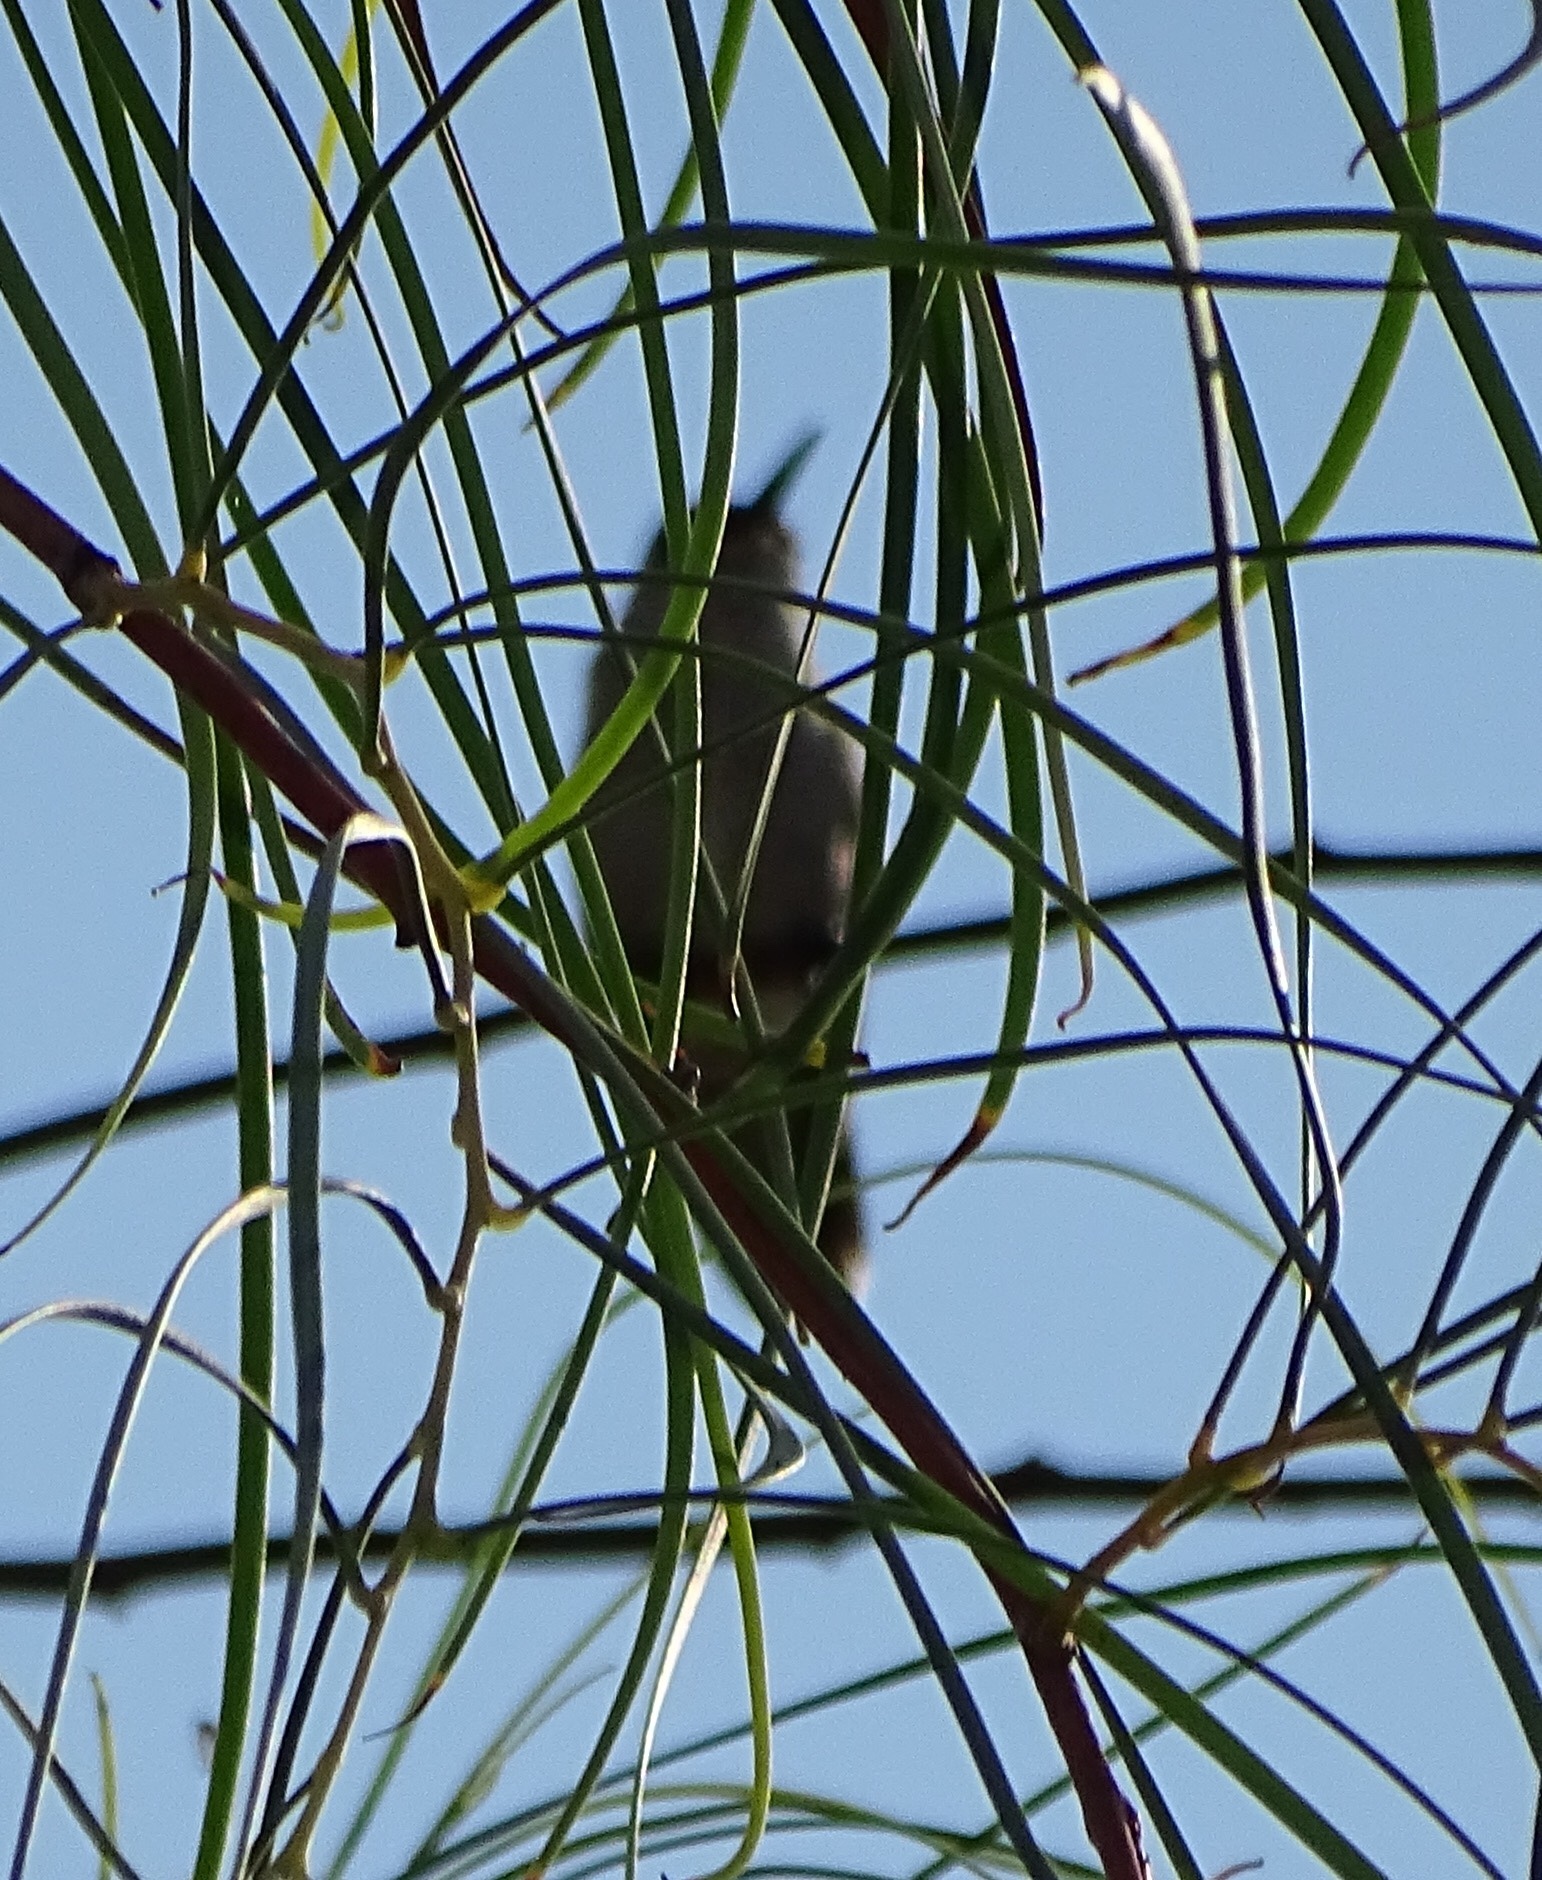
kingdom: Animalia
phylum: Chordata
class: Aves
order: Apodiformes
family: Trochilidae
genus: Calypte
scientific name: Calypte costae
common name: Costa's hummingbird
